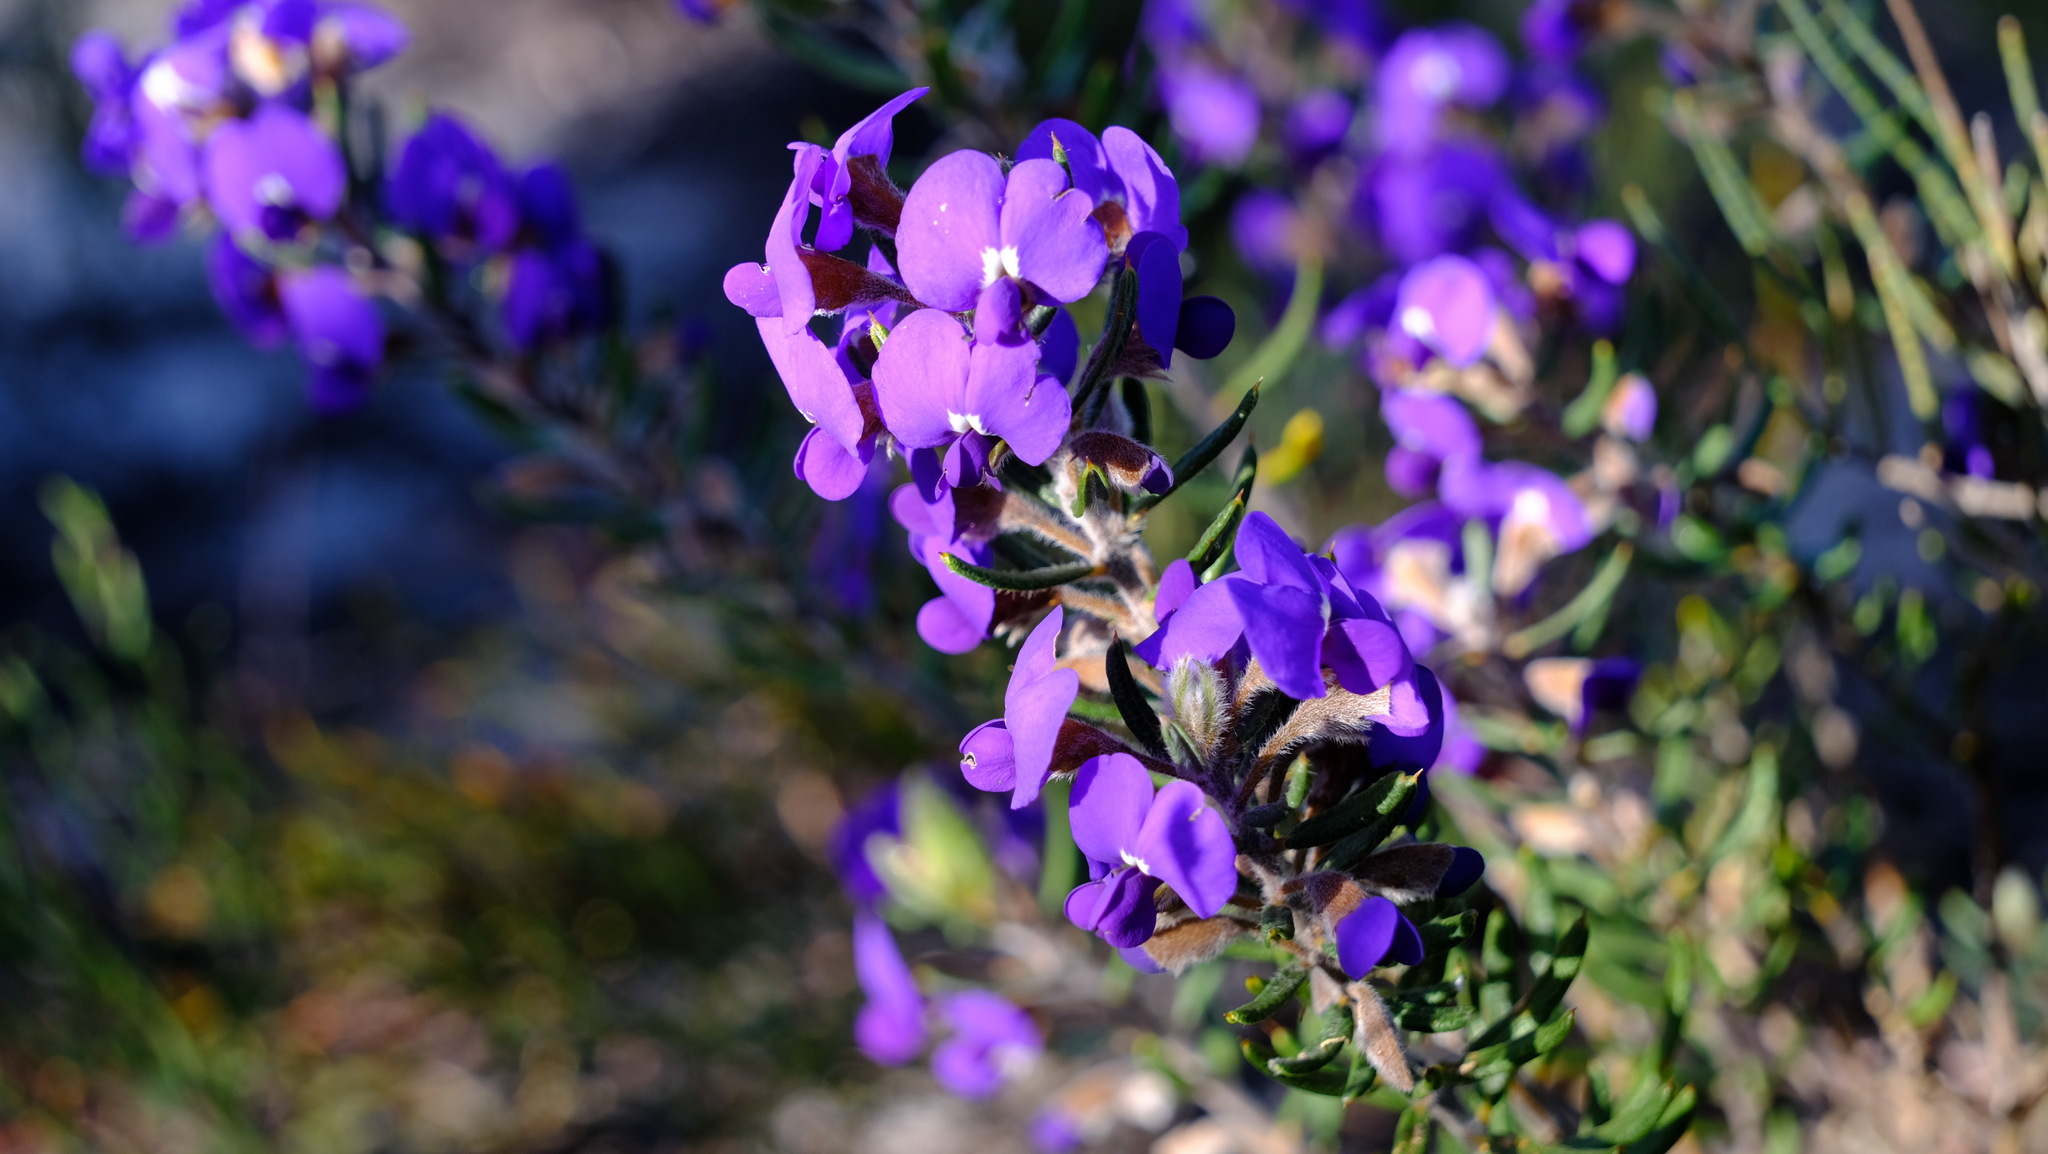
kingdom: Plantae
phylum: Tracheophyta
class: Magnoliopsida
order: Fabales
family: Fabaceae
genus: Hovea
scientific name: Hovea pungens
